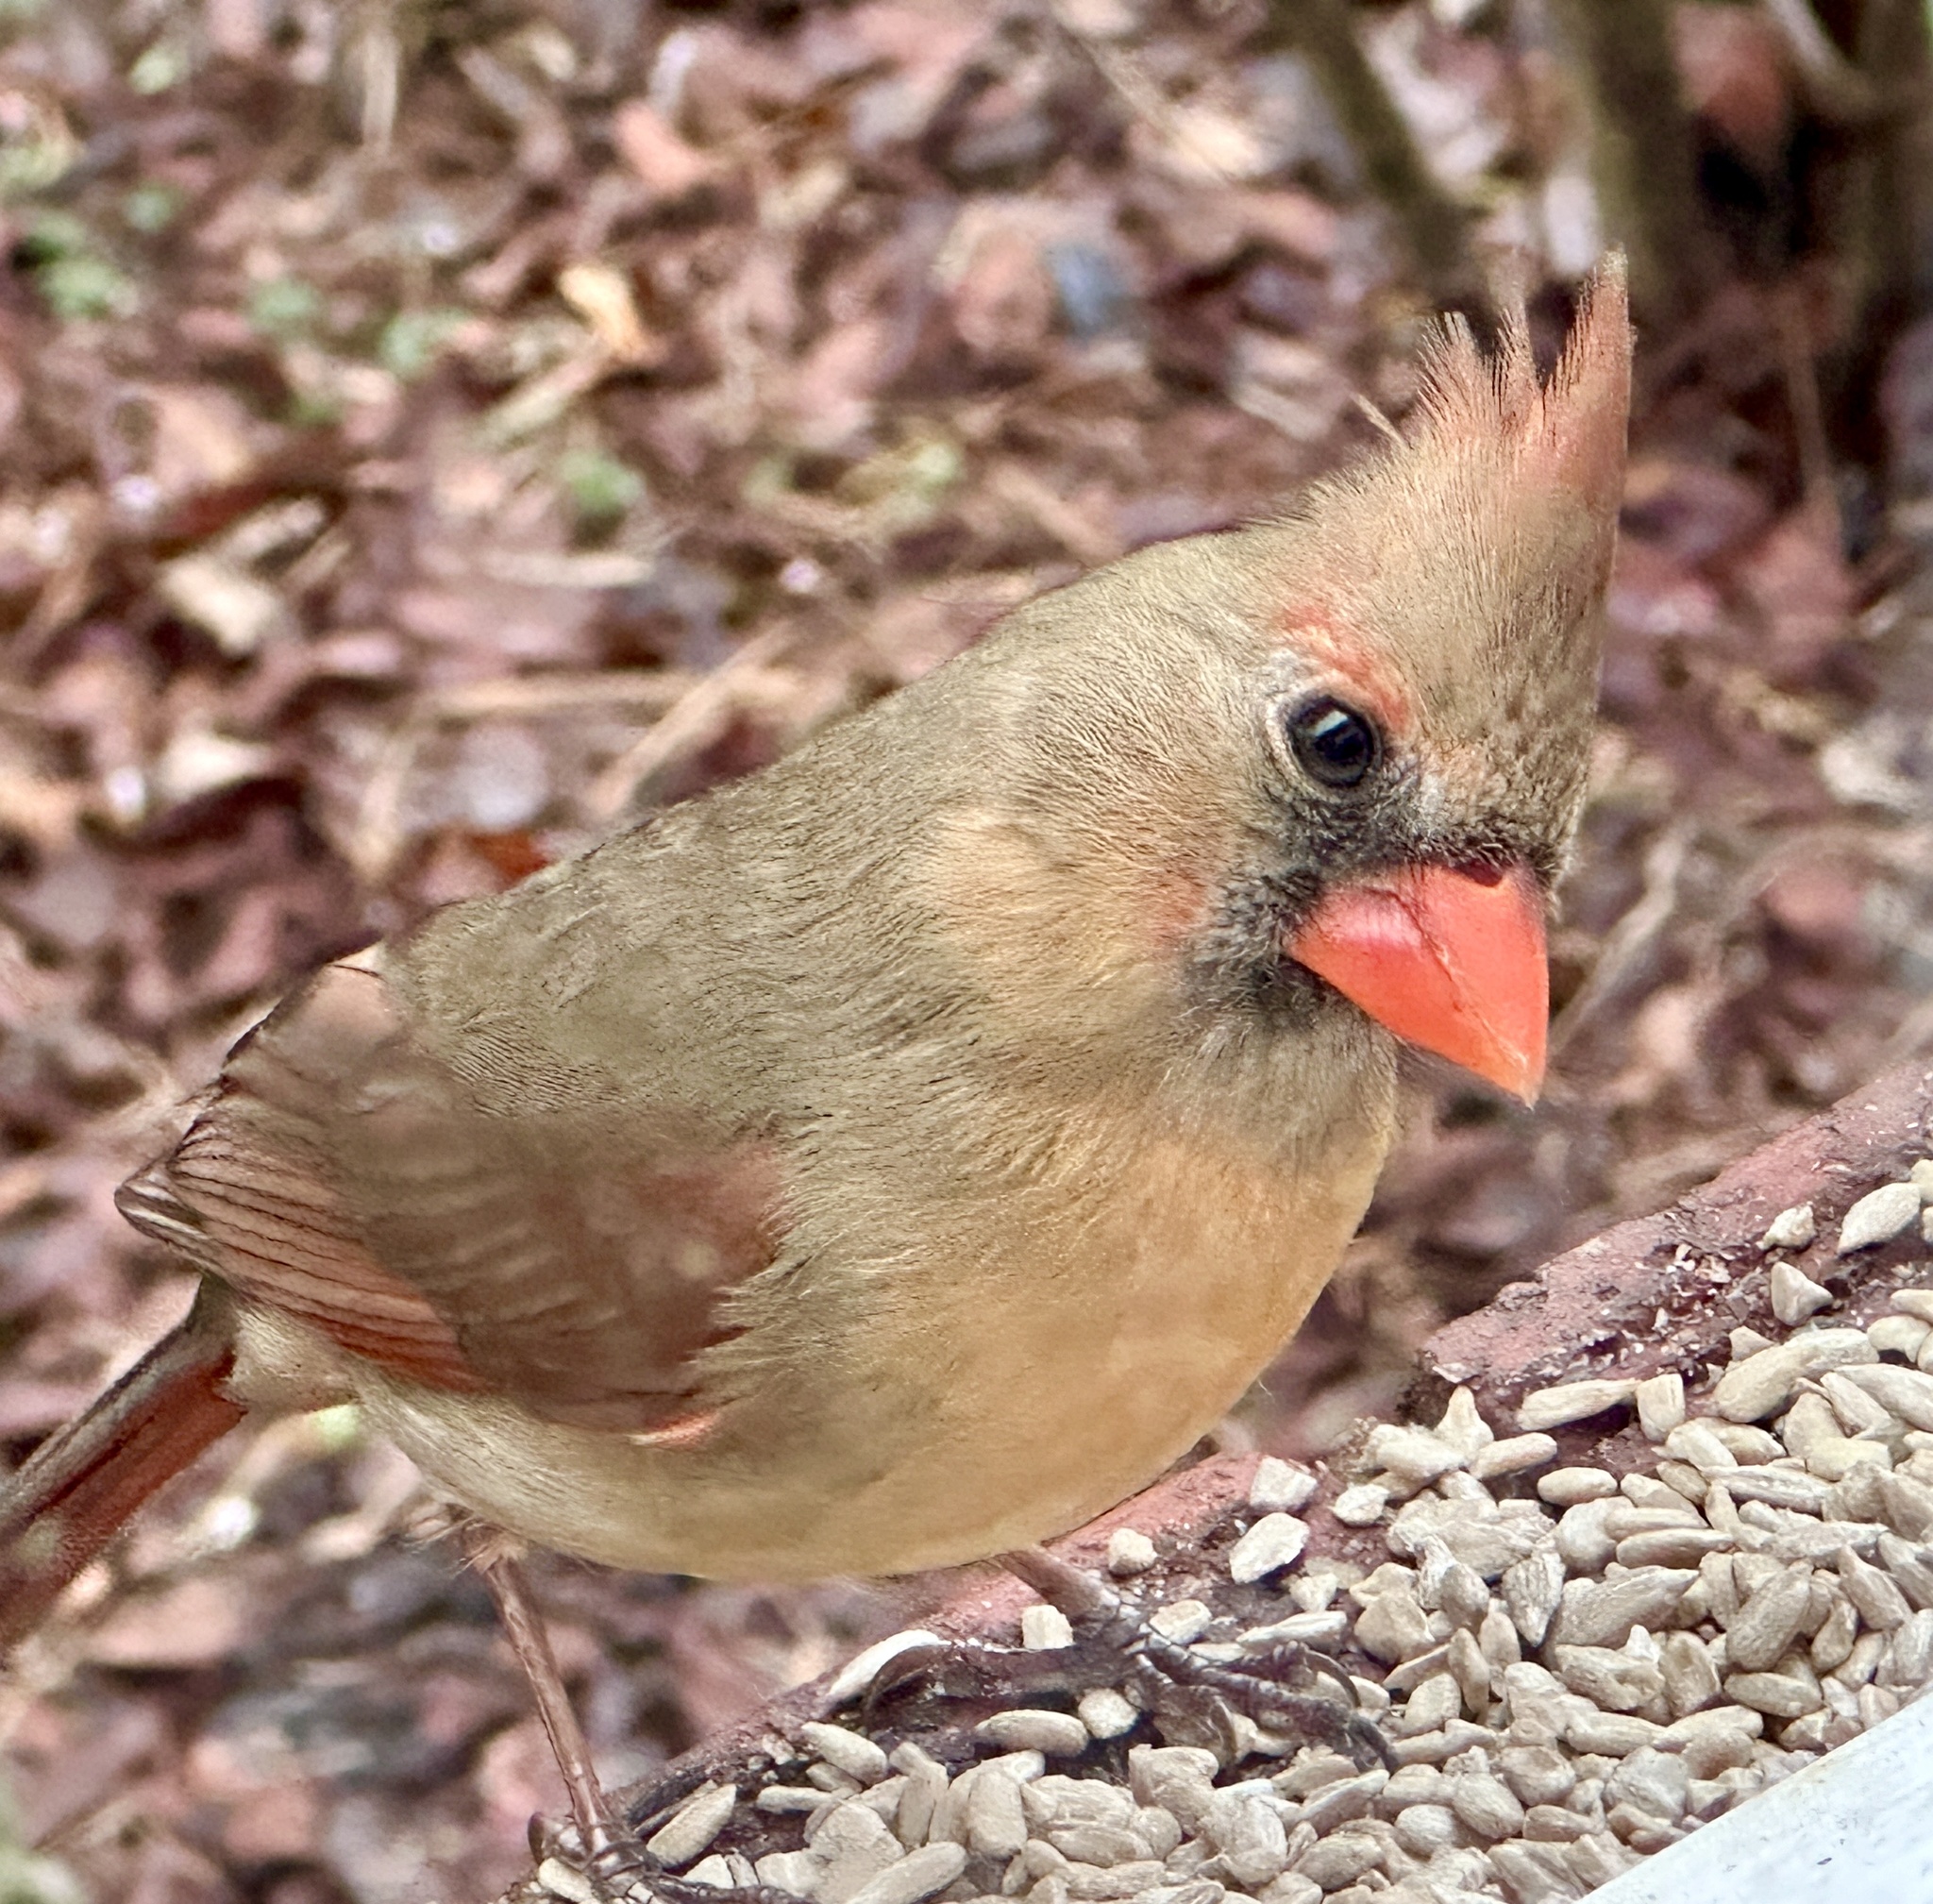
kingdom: Animalia
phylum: Chordata
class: Aves
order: Passeriformes
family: Cardinalidae
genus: Cardinalis
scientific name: Cardinalis cardinalis
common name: Northern cardinal
